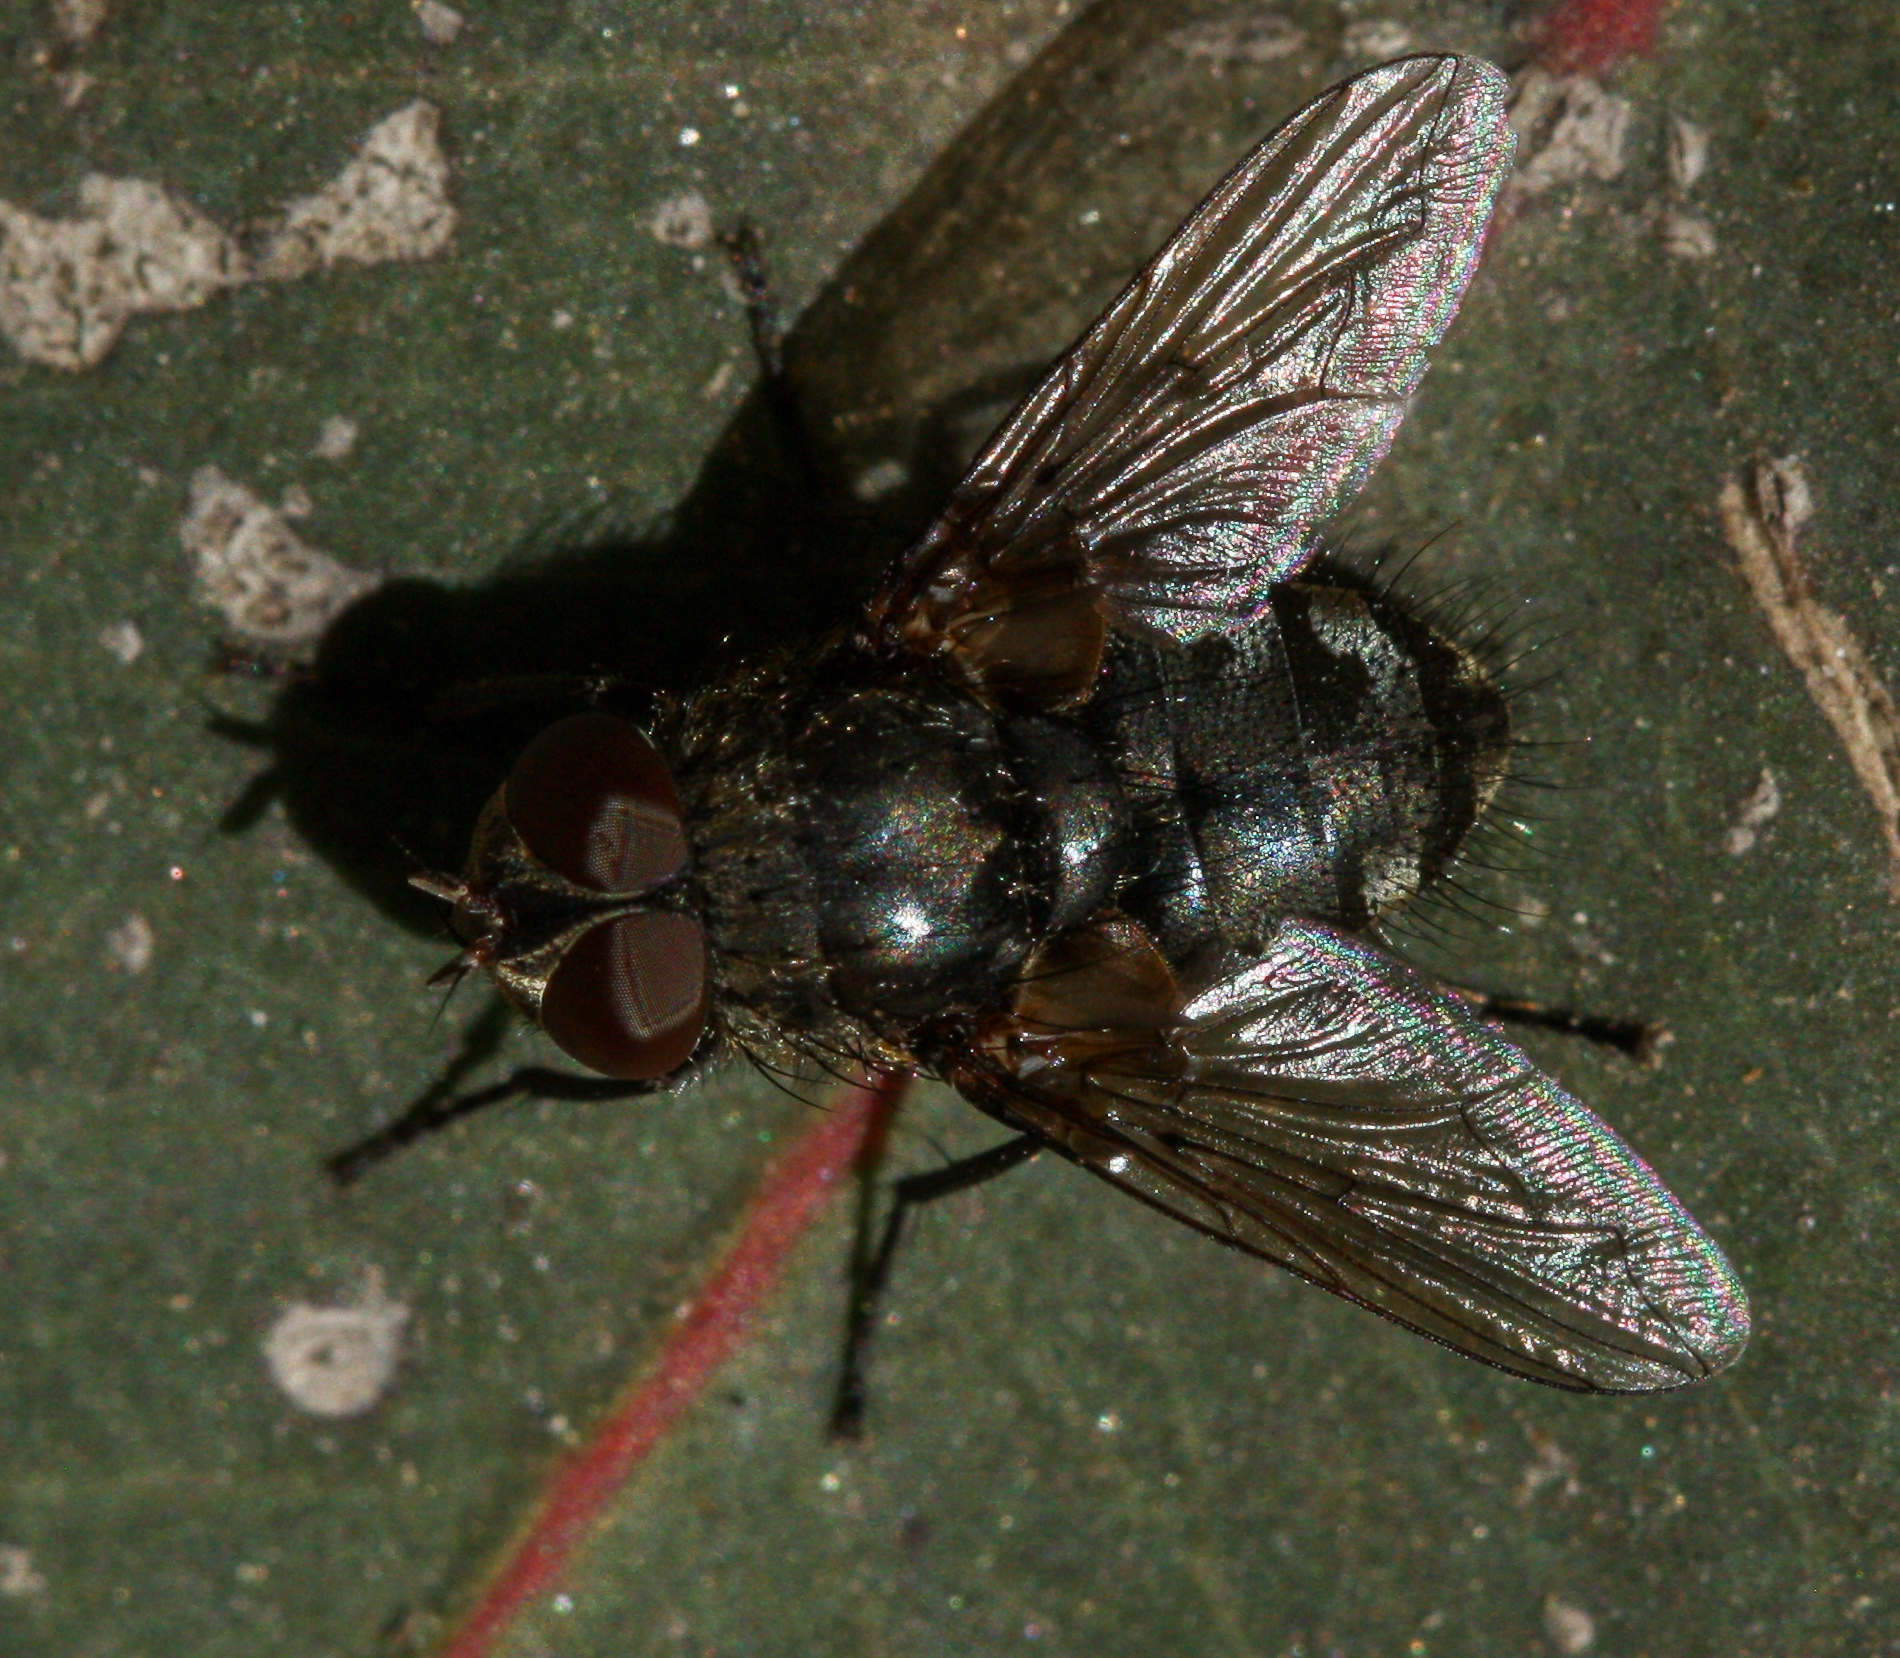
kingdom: Animalia
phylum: Arthropoda
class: Insecta
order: Diptera
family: Polleniidae
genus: Pollenia
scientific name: Pollenia
